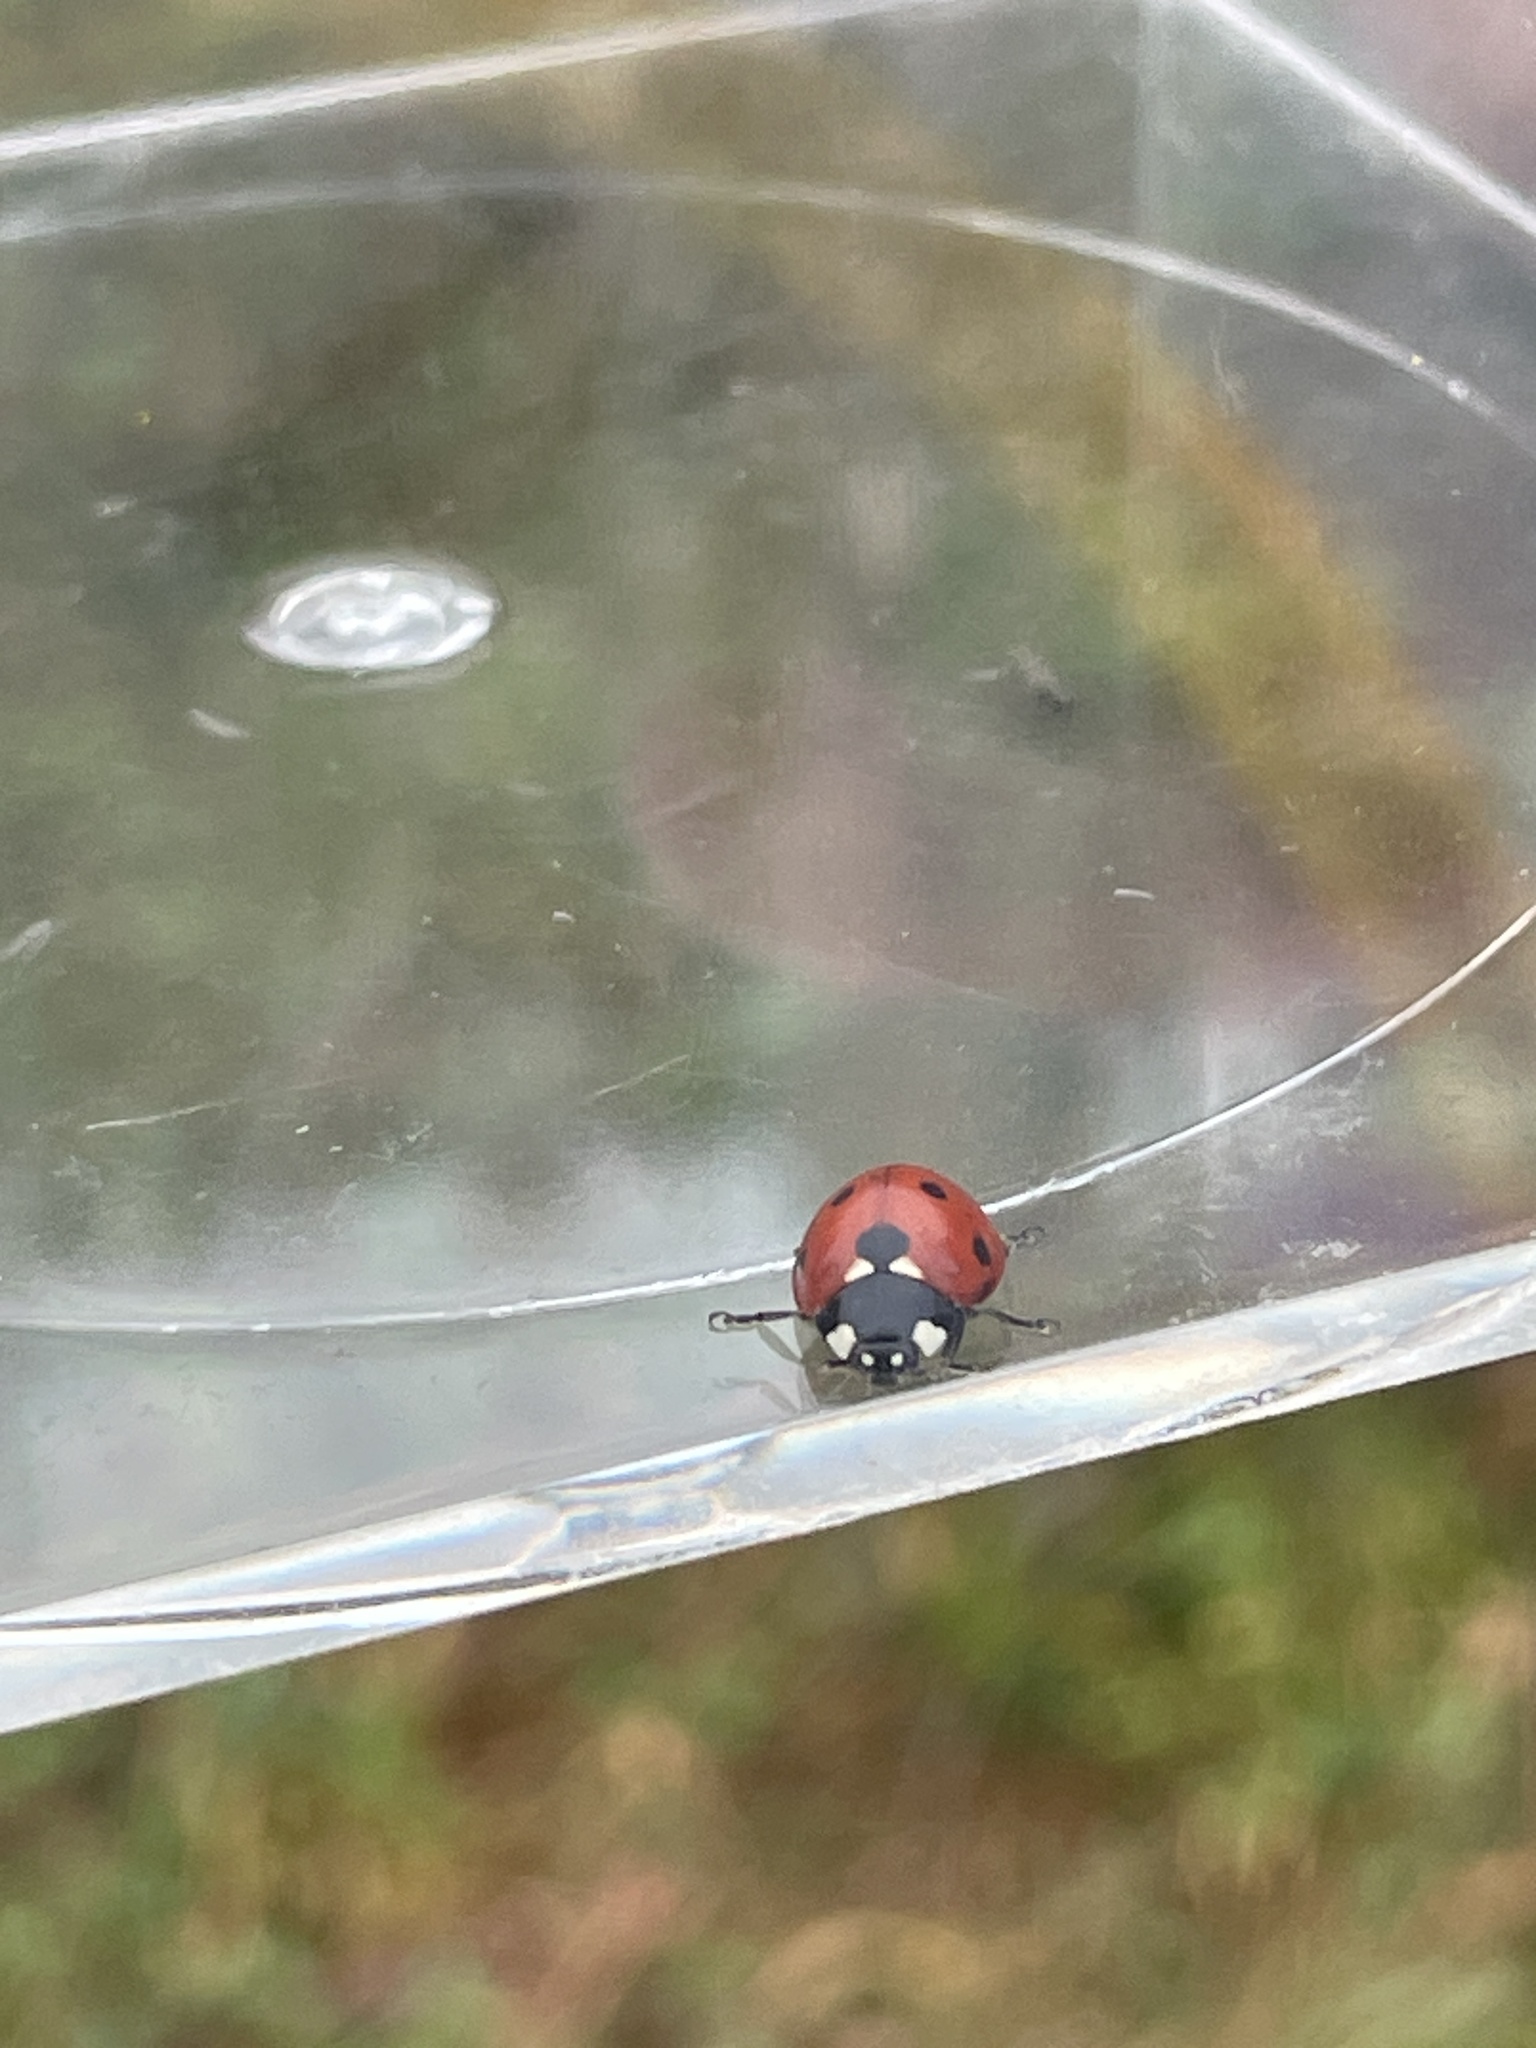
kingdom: Animalia
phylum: Arthropoda
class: Insecta
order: Coleoptera
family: Coccinellidae
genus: Coccinella
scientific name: Coccinella septempunctata
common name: Sevenspotted lady beetle
